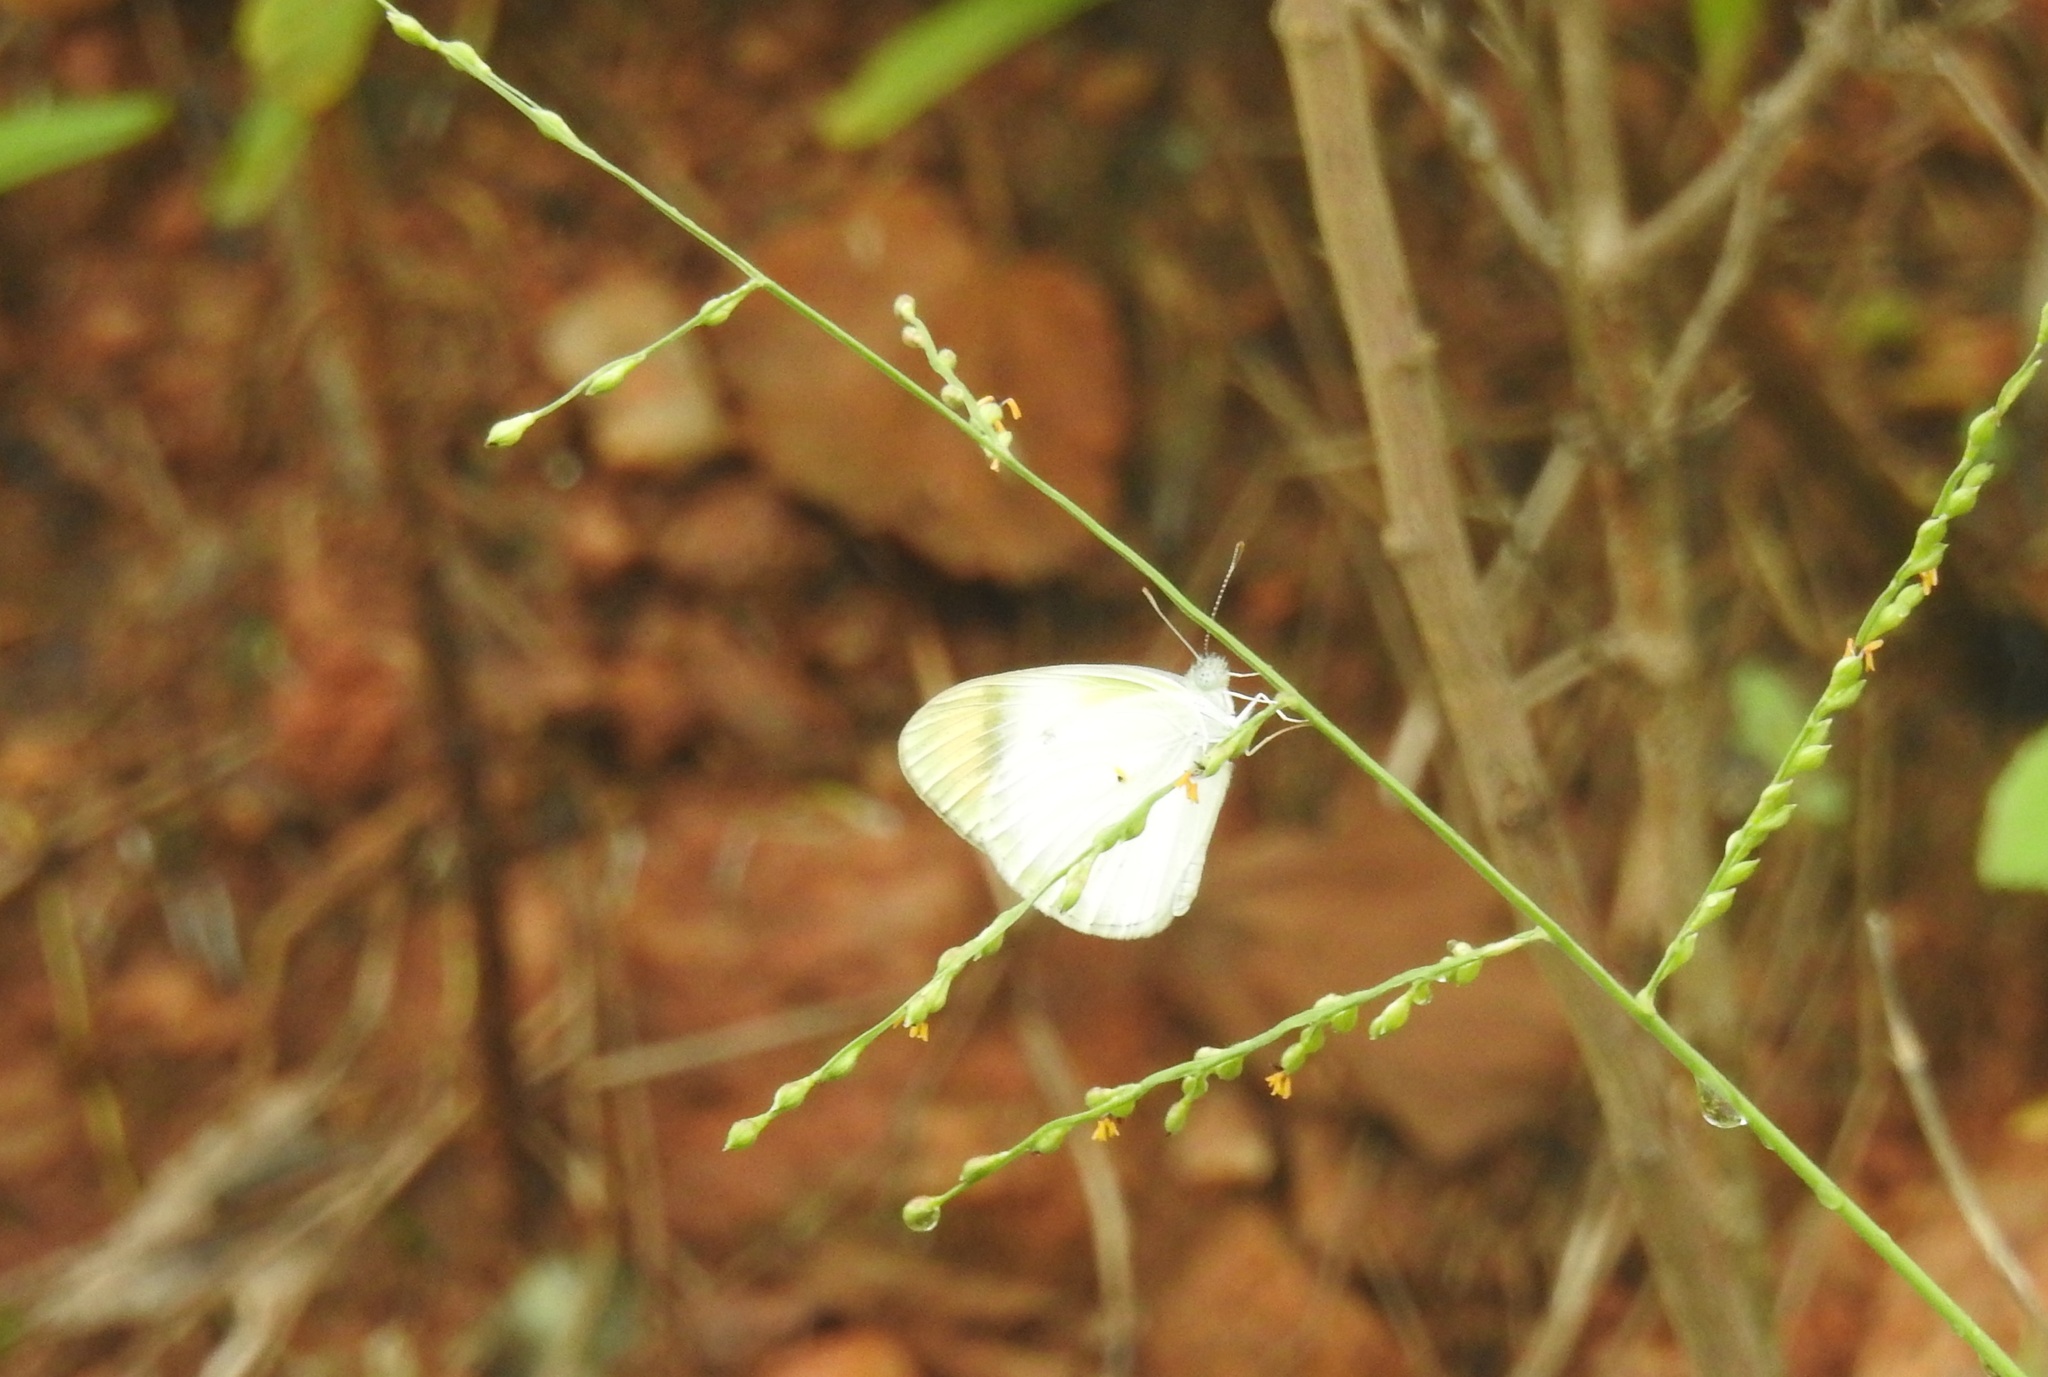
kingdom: Animalia
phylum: Arthropoda
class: Insecta
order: Lepidoptera
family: Pieridae
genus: Colotis
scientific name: Colotis etrida
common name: Little orange tip
